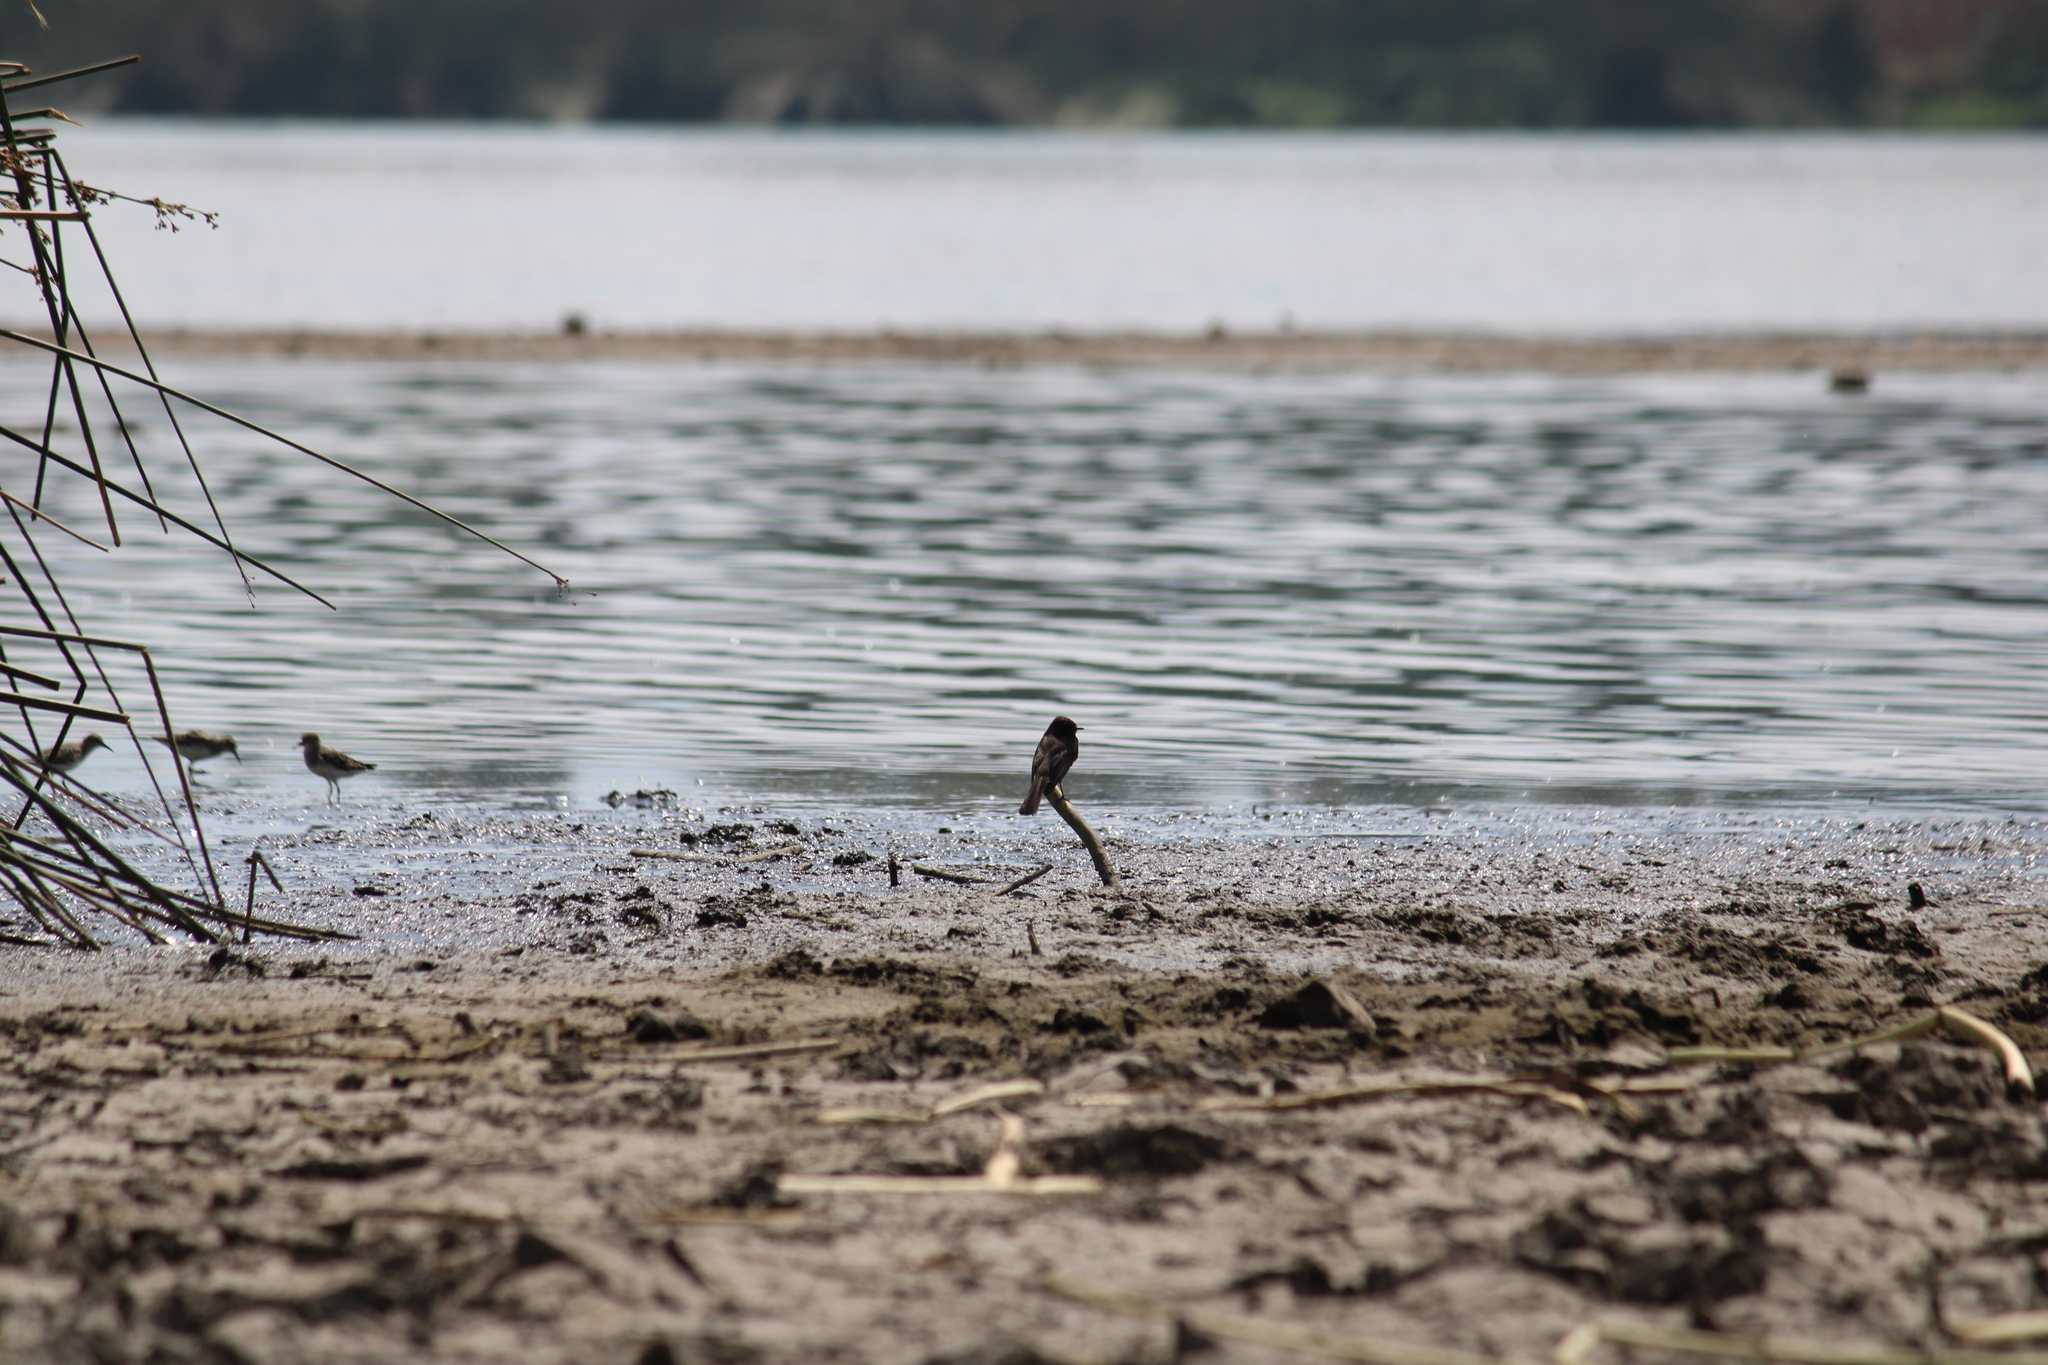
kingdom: Animalia
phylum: Chordata
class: Aves
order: Passeriformes
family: Tyrannidae
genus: Sayornis
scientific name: Sayornis nigricans
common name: Black phoebe
